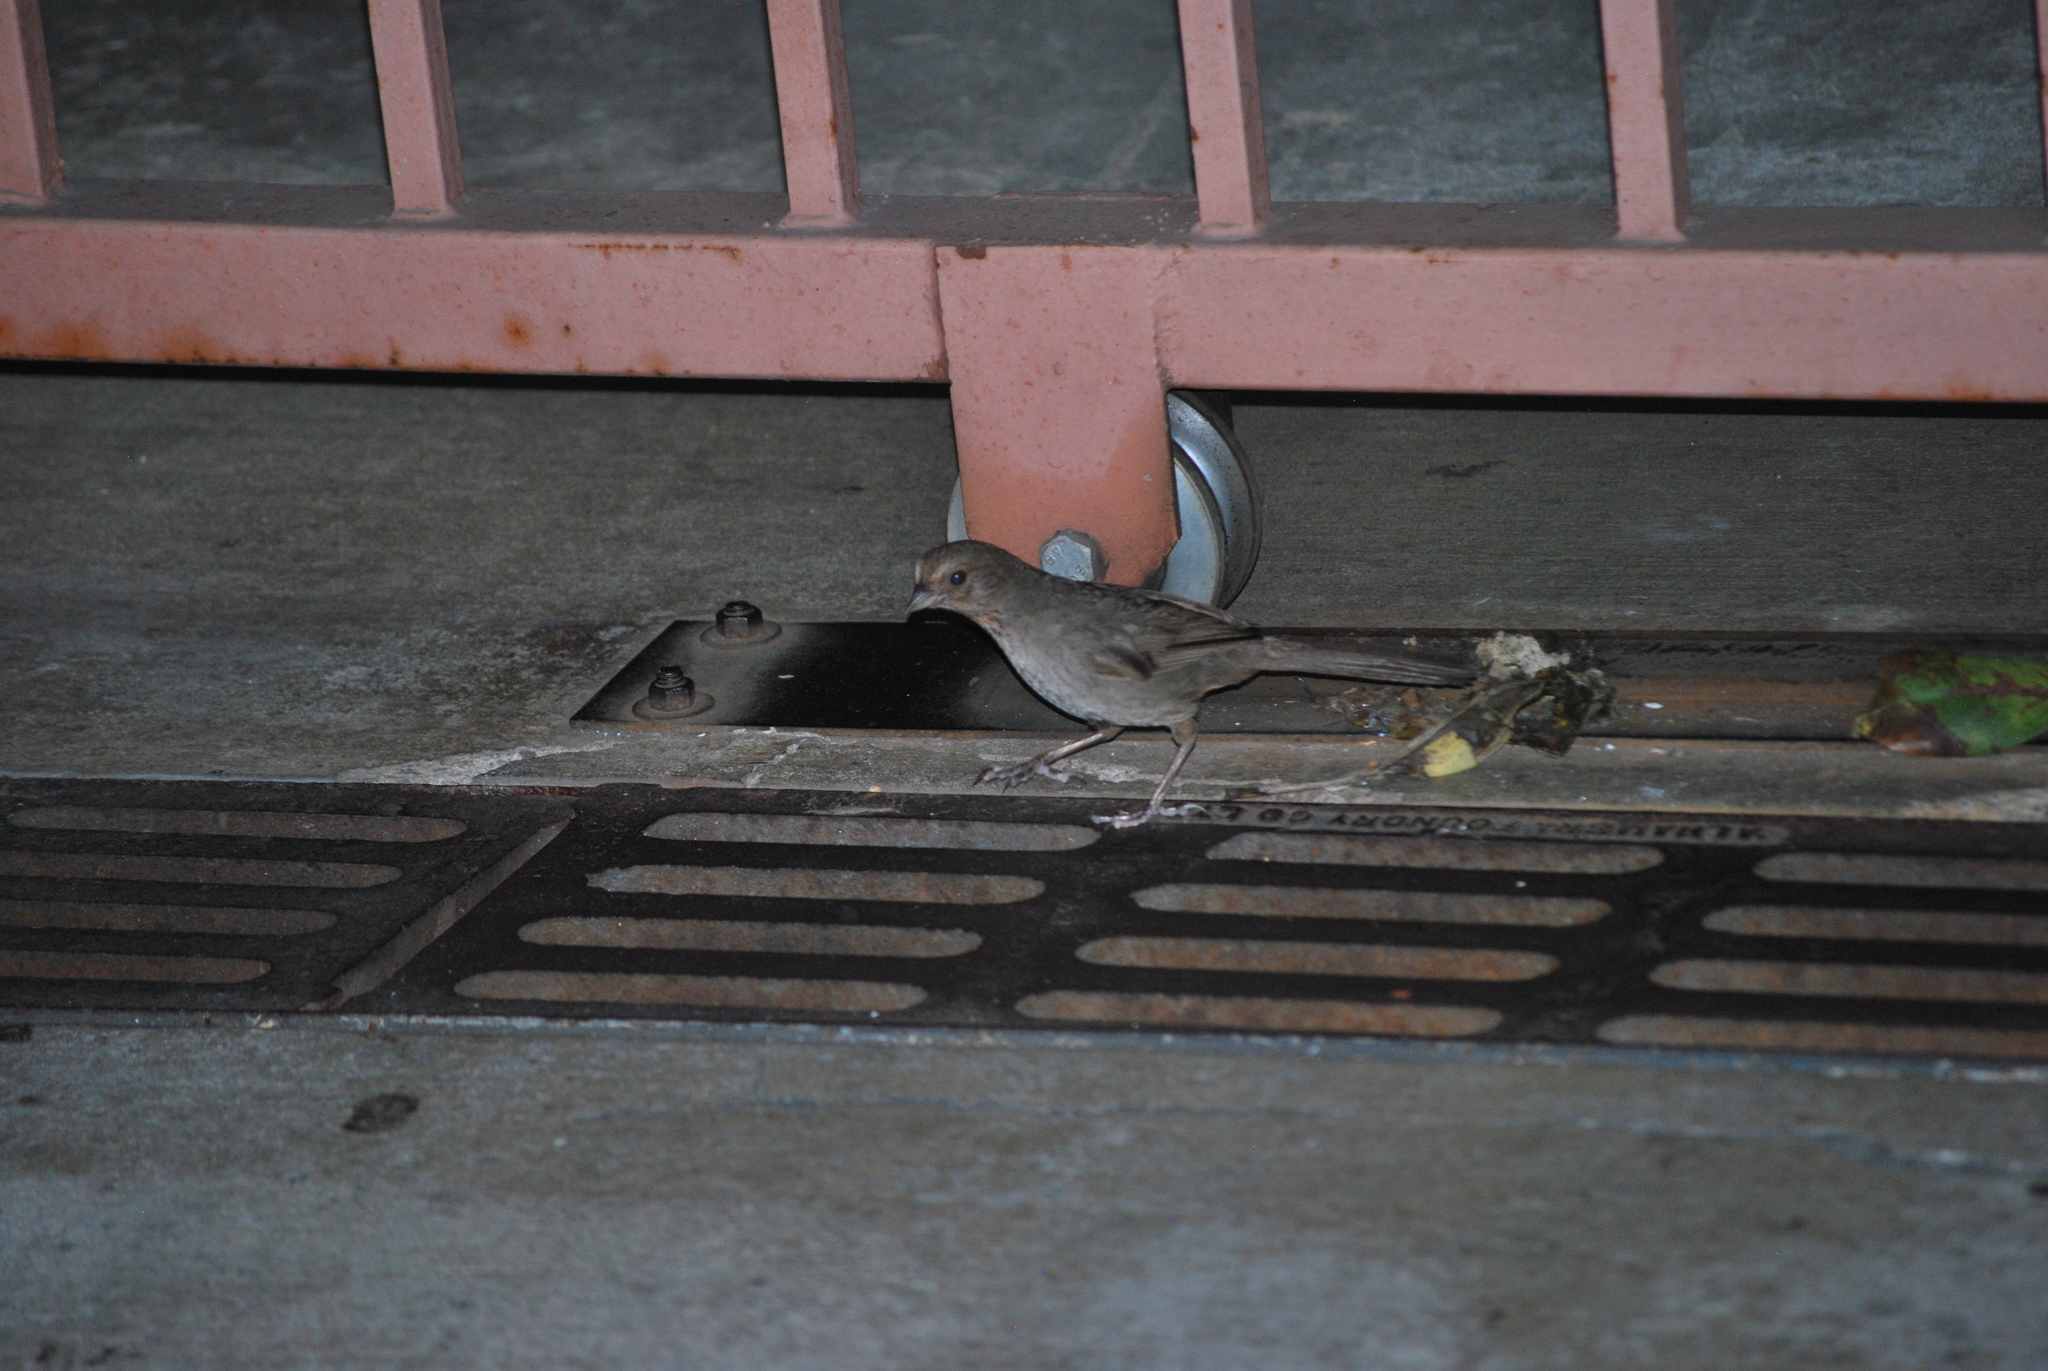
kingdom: Animalia
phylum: Chordata
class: Aves
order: Passeriformes
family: Passerellidae
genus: Melozone
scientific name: Melozone crissalis
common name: California towhee
